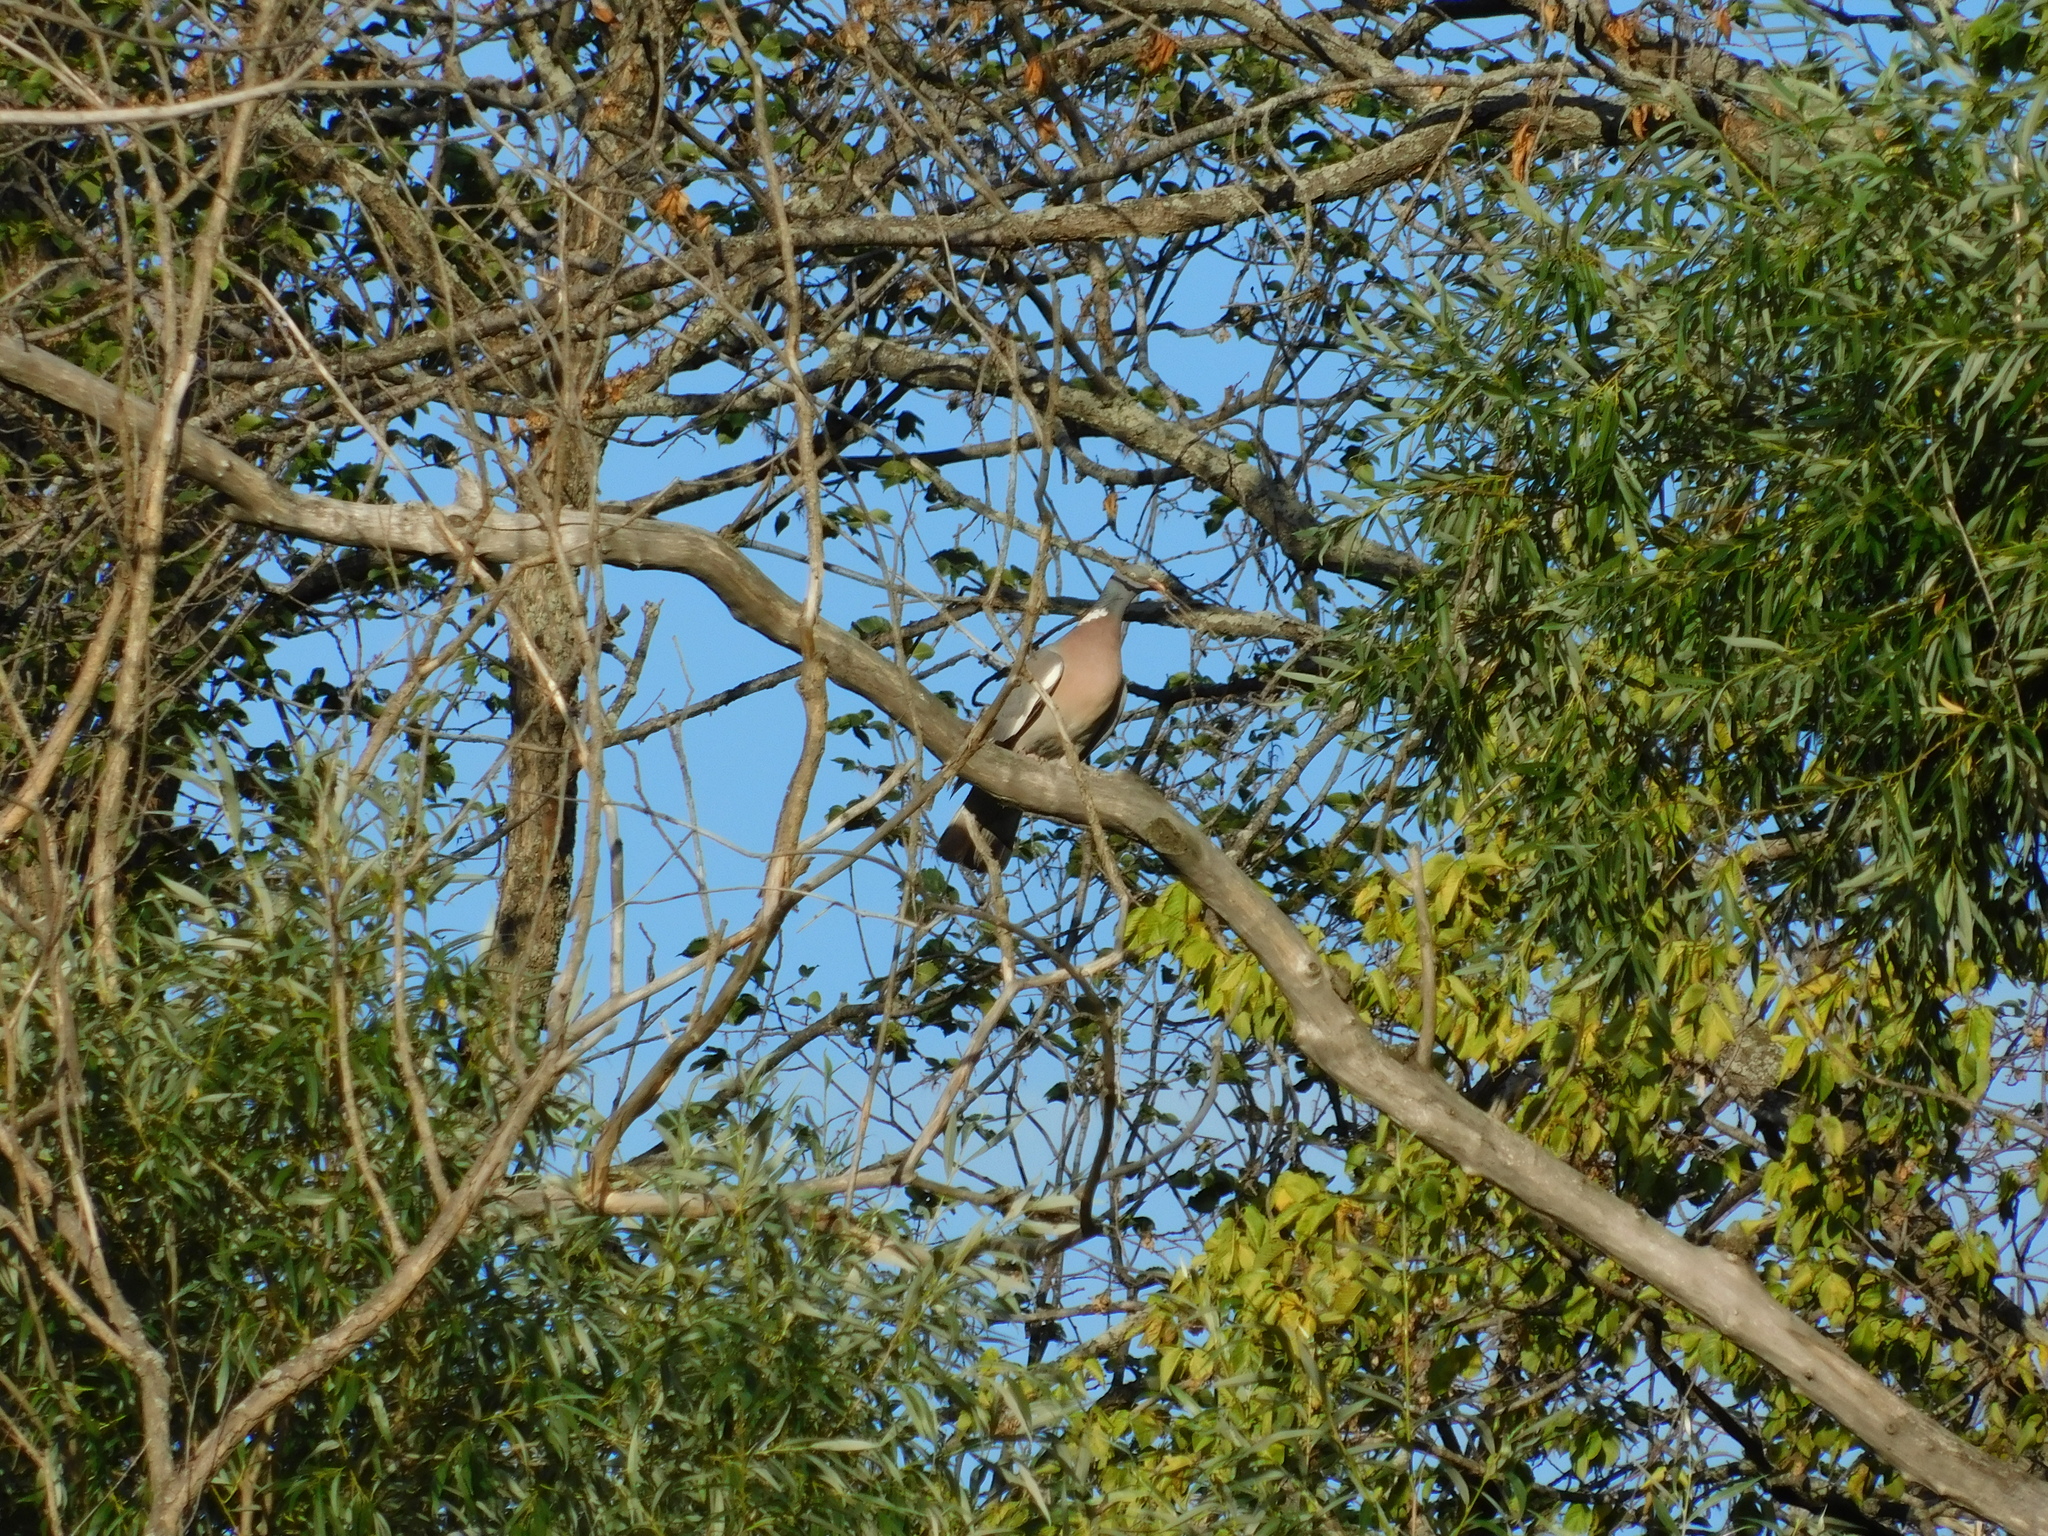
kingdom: Animalia
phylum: Chordata
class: Aves
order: Columbiformes
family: Columbidae
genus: Columba
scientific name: Columba palumbus
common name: Common wood pigeon
